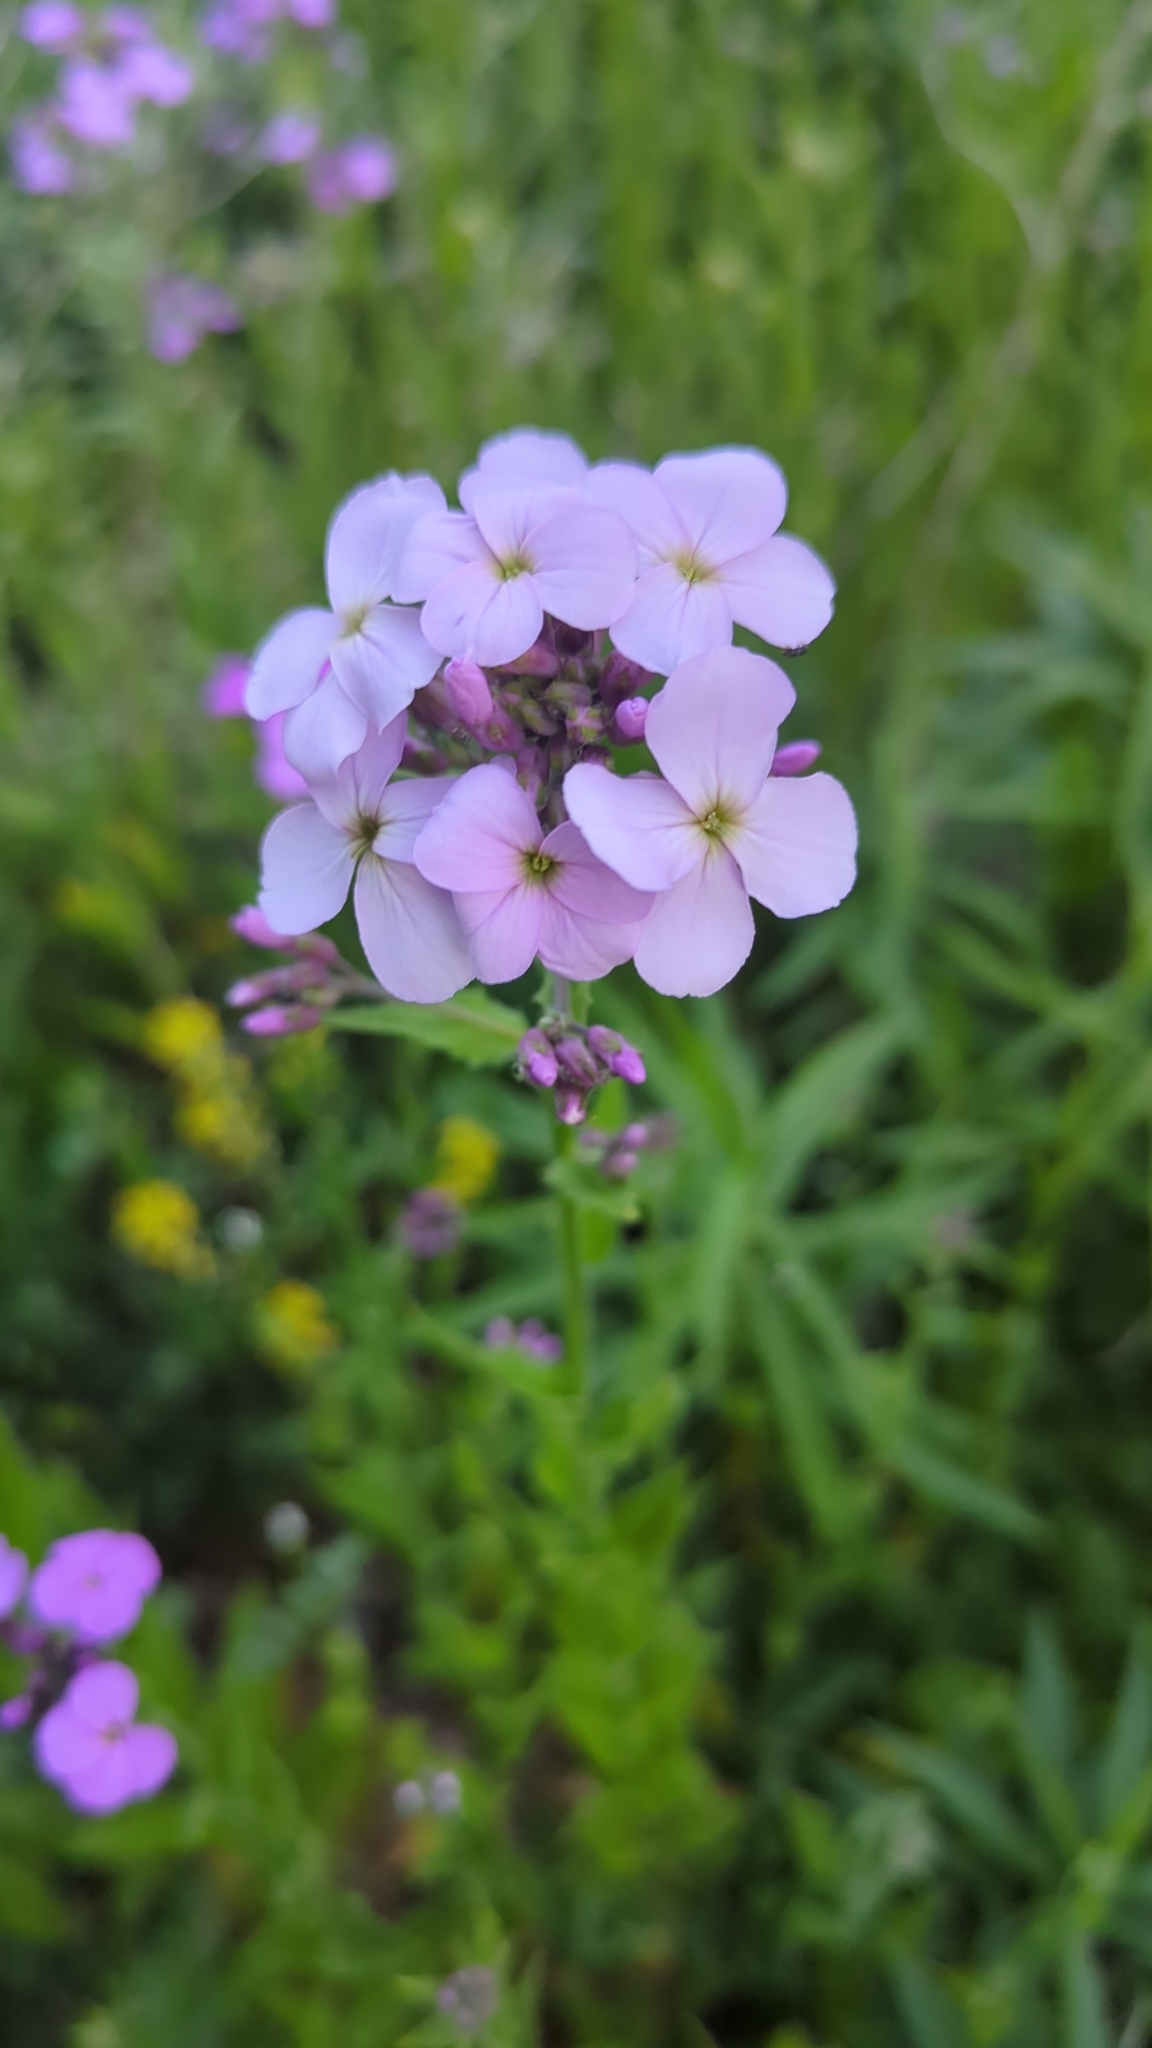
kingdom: Plantae
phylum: Tracheophyta
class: Magnoliopsida
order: Brassicales
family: Brassicaceae
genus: Hesperis
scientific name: Hesperis matronalis
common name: Dame's-violet
